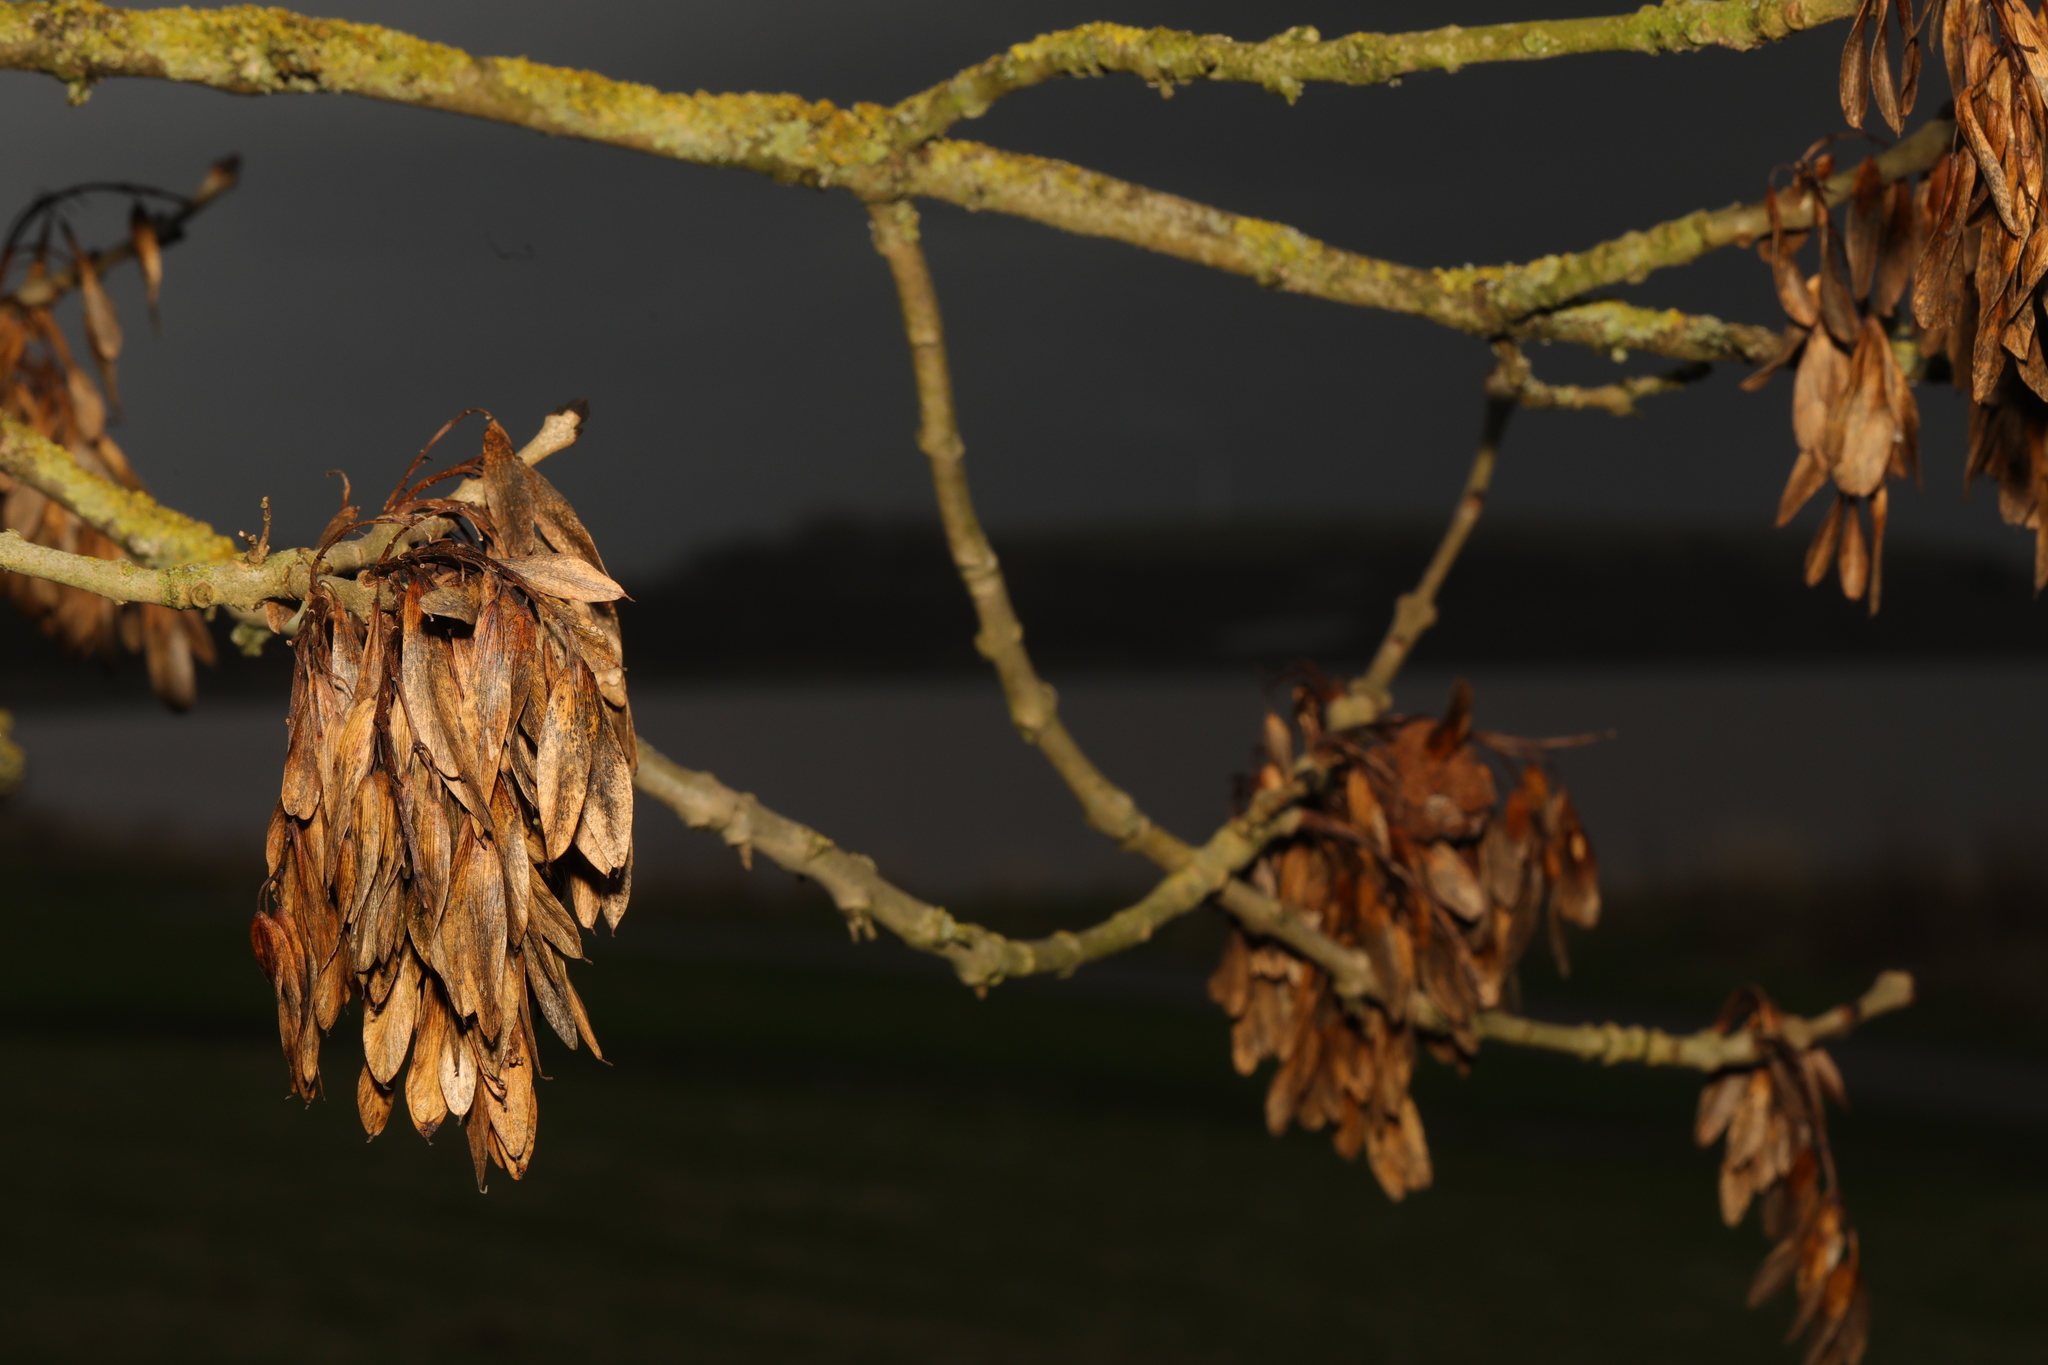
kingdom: Plantae
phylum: Tracheophyta
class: Magnoliopsida
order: Lamiales
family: Oleaceae
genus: Fraxinus
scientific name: Fraxinus excelsior
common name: European ash
